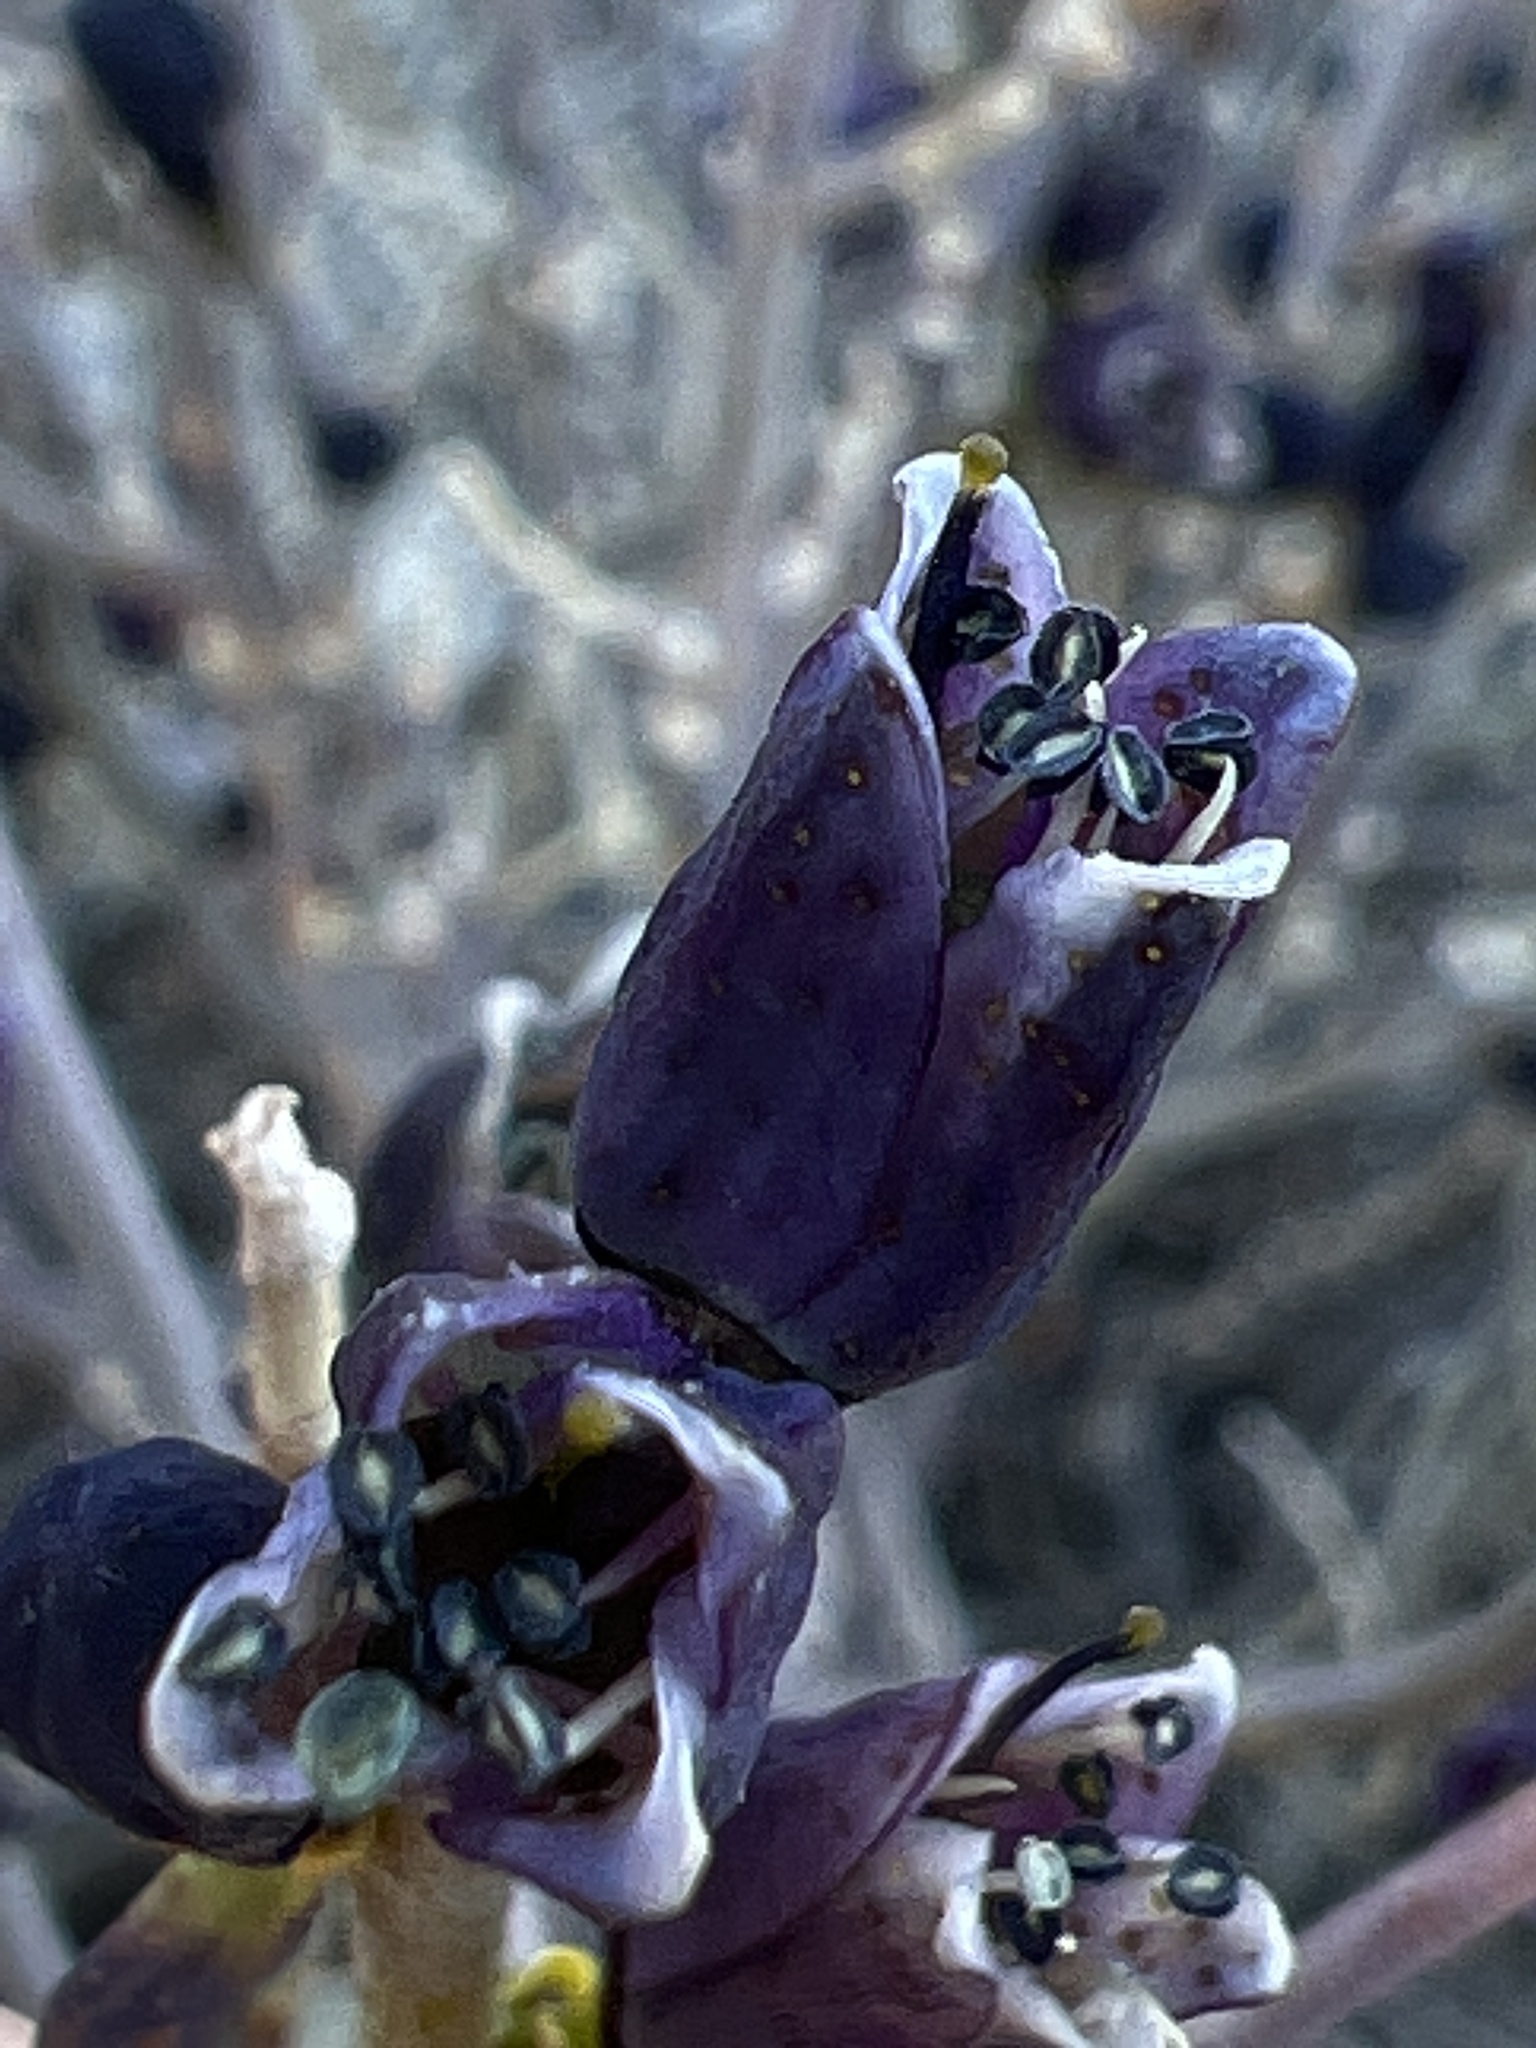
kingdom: Plantae
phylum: Tracheophyta
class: Magnoliopsida
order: Sapindales
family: Rutaceae
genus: Thamnosma
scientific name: Thamnosma montana
